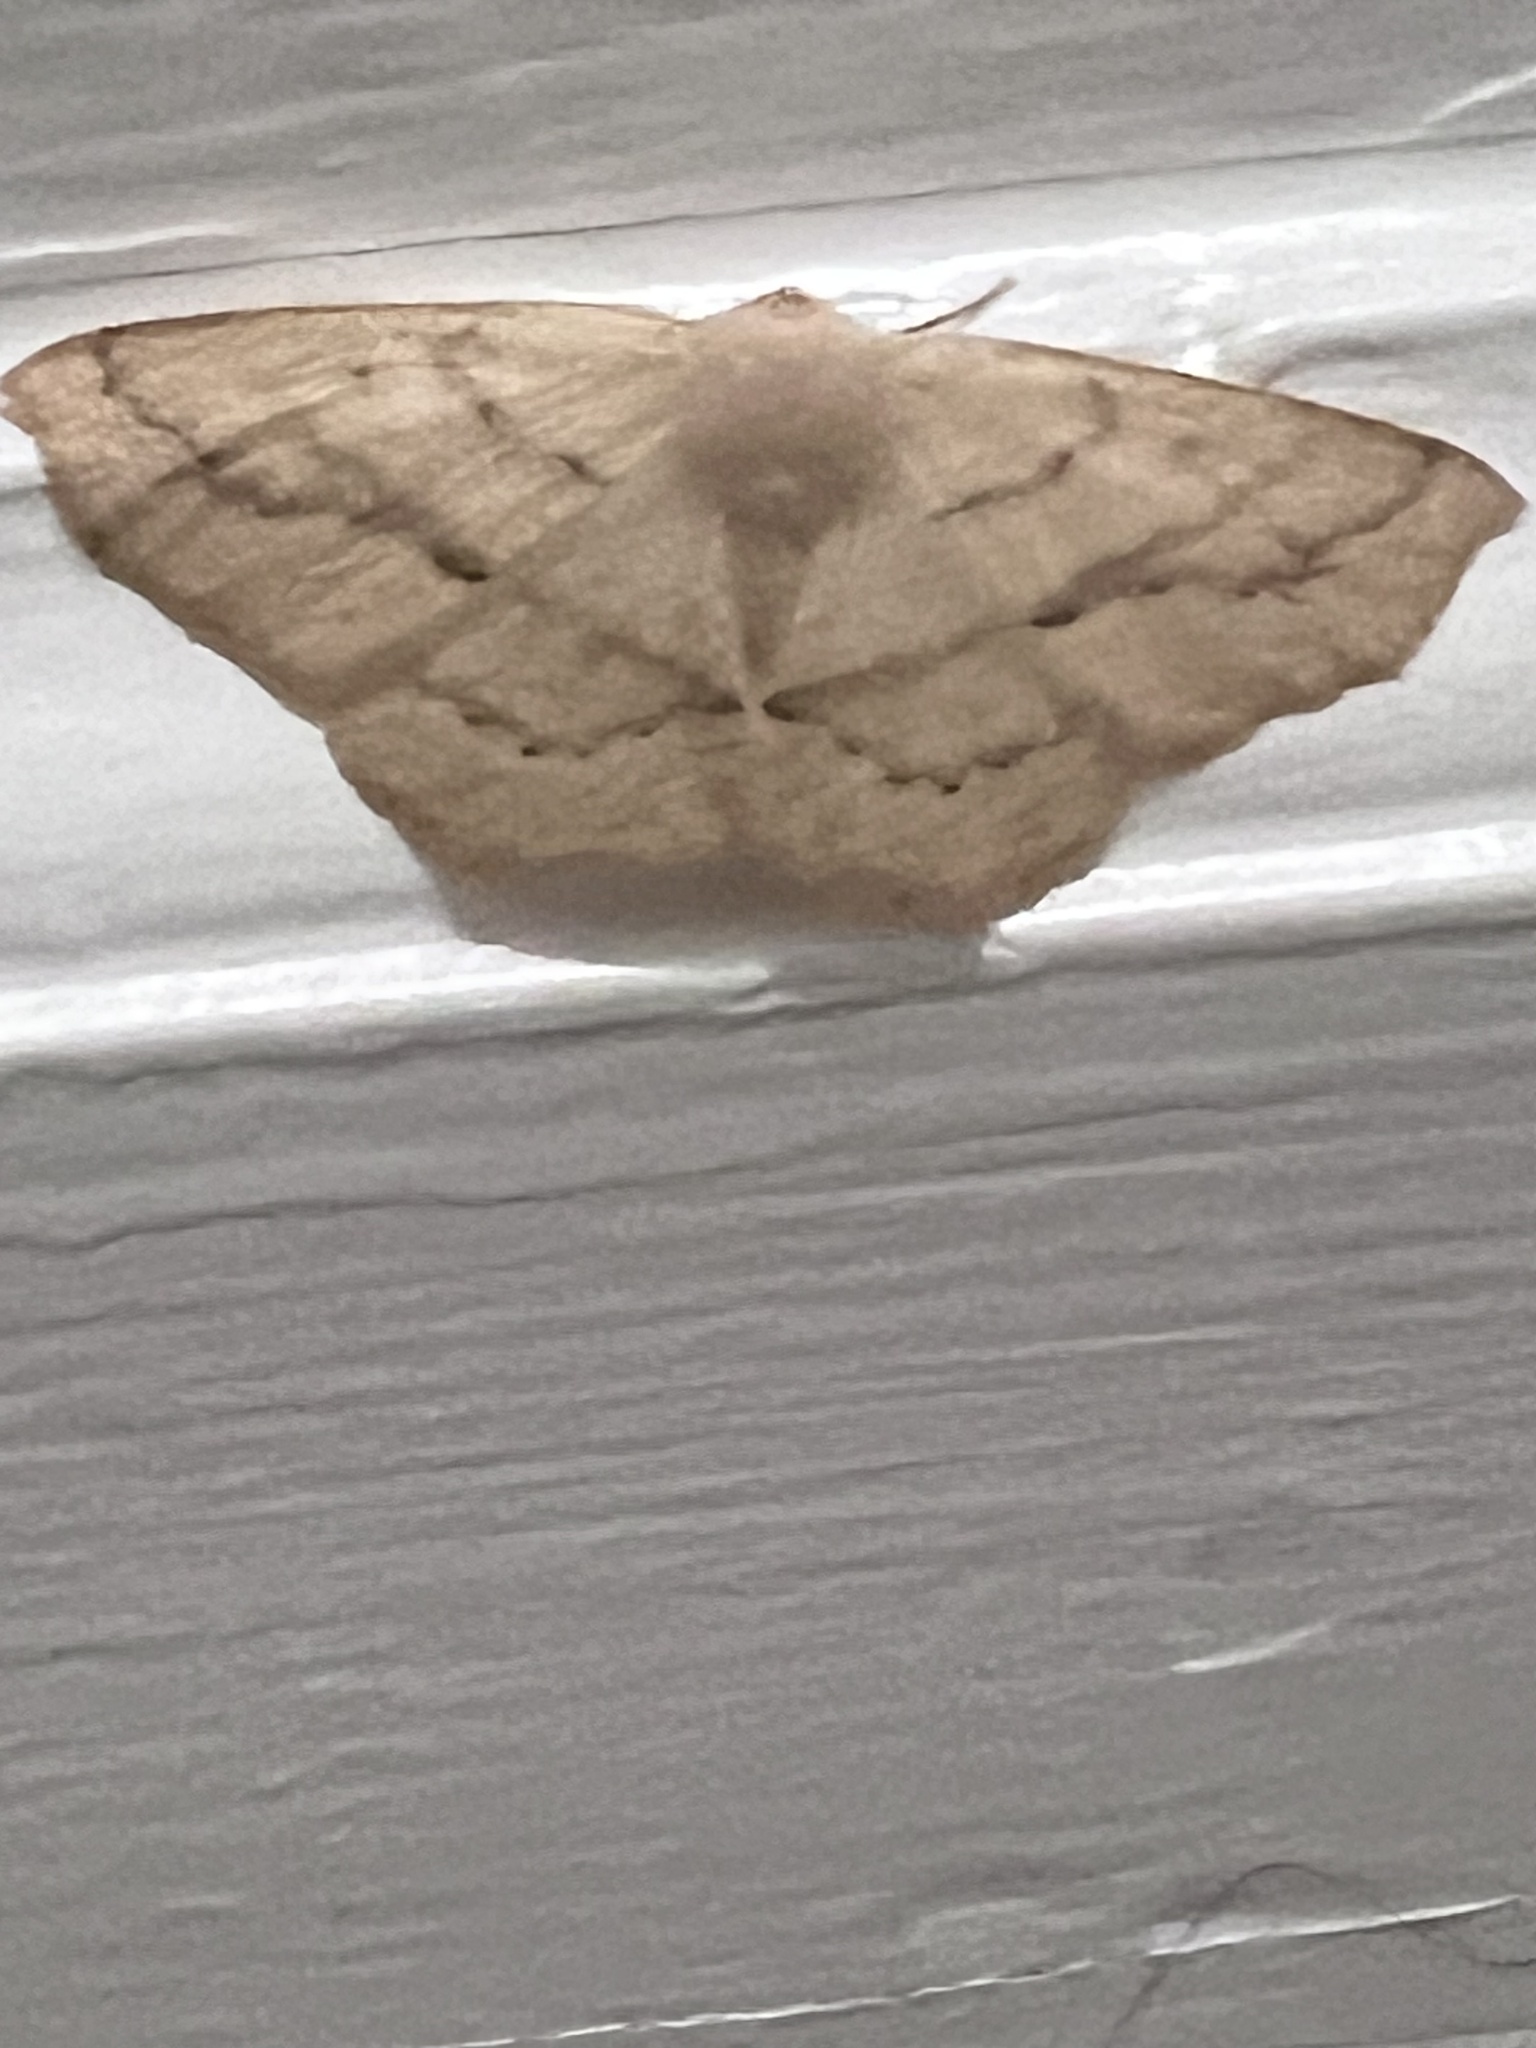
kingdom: Animalia
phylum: Arthropoda
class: Insecta
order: Lepidoptera
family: Geometridae
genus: Sabulodes
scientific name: Sabulodes aegrotata
